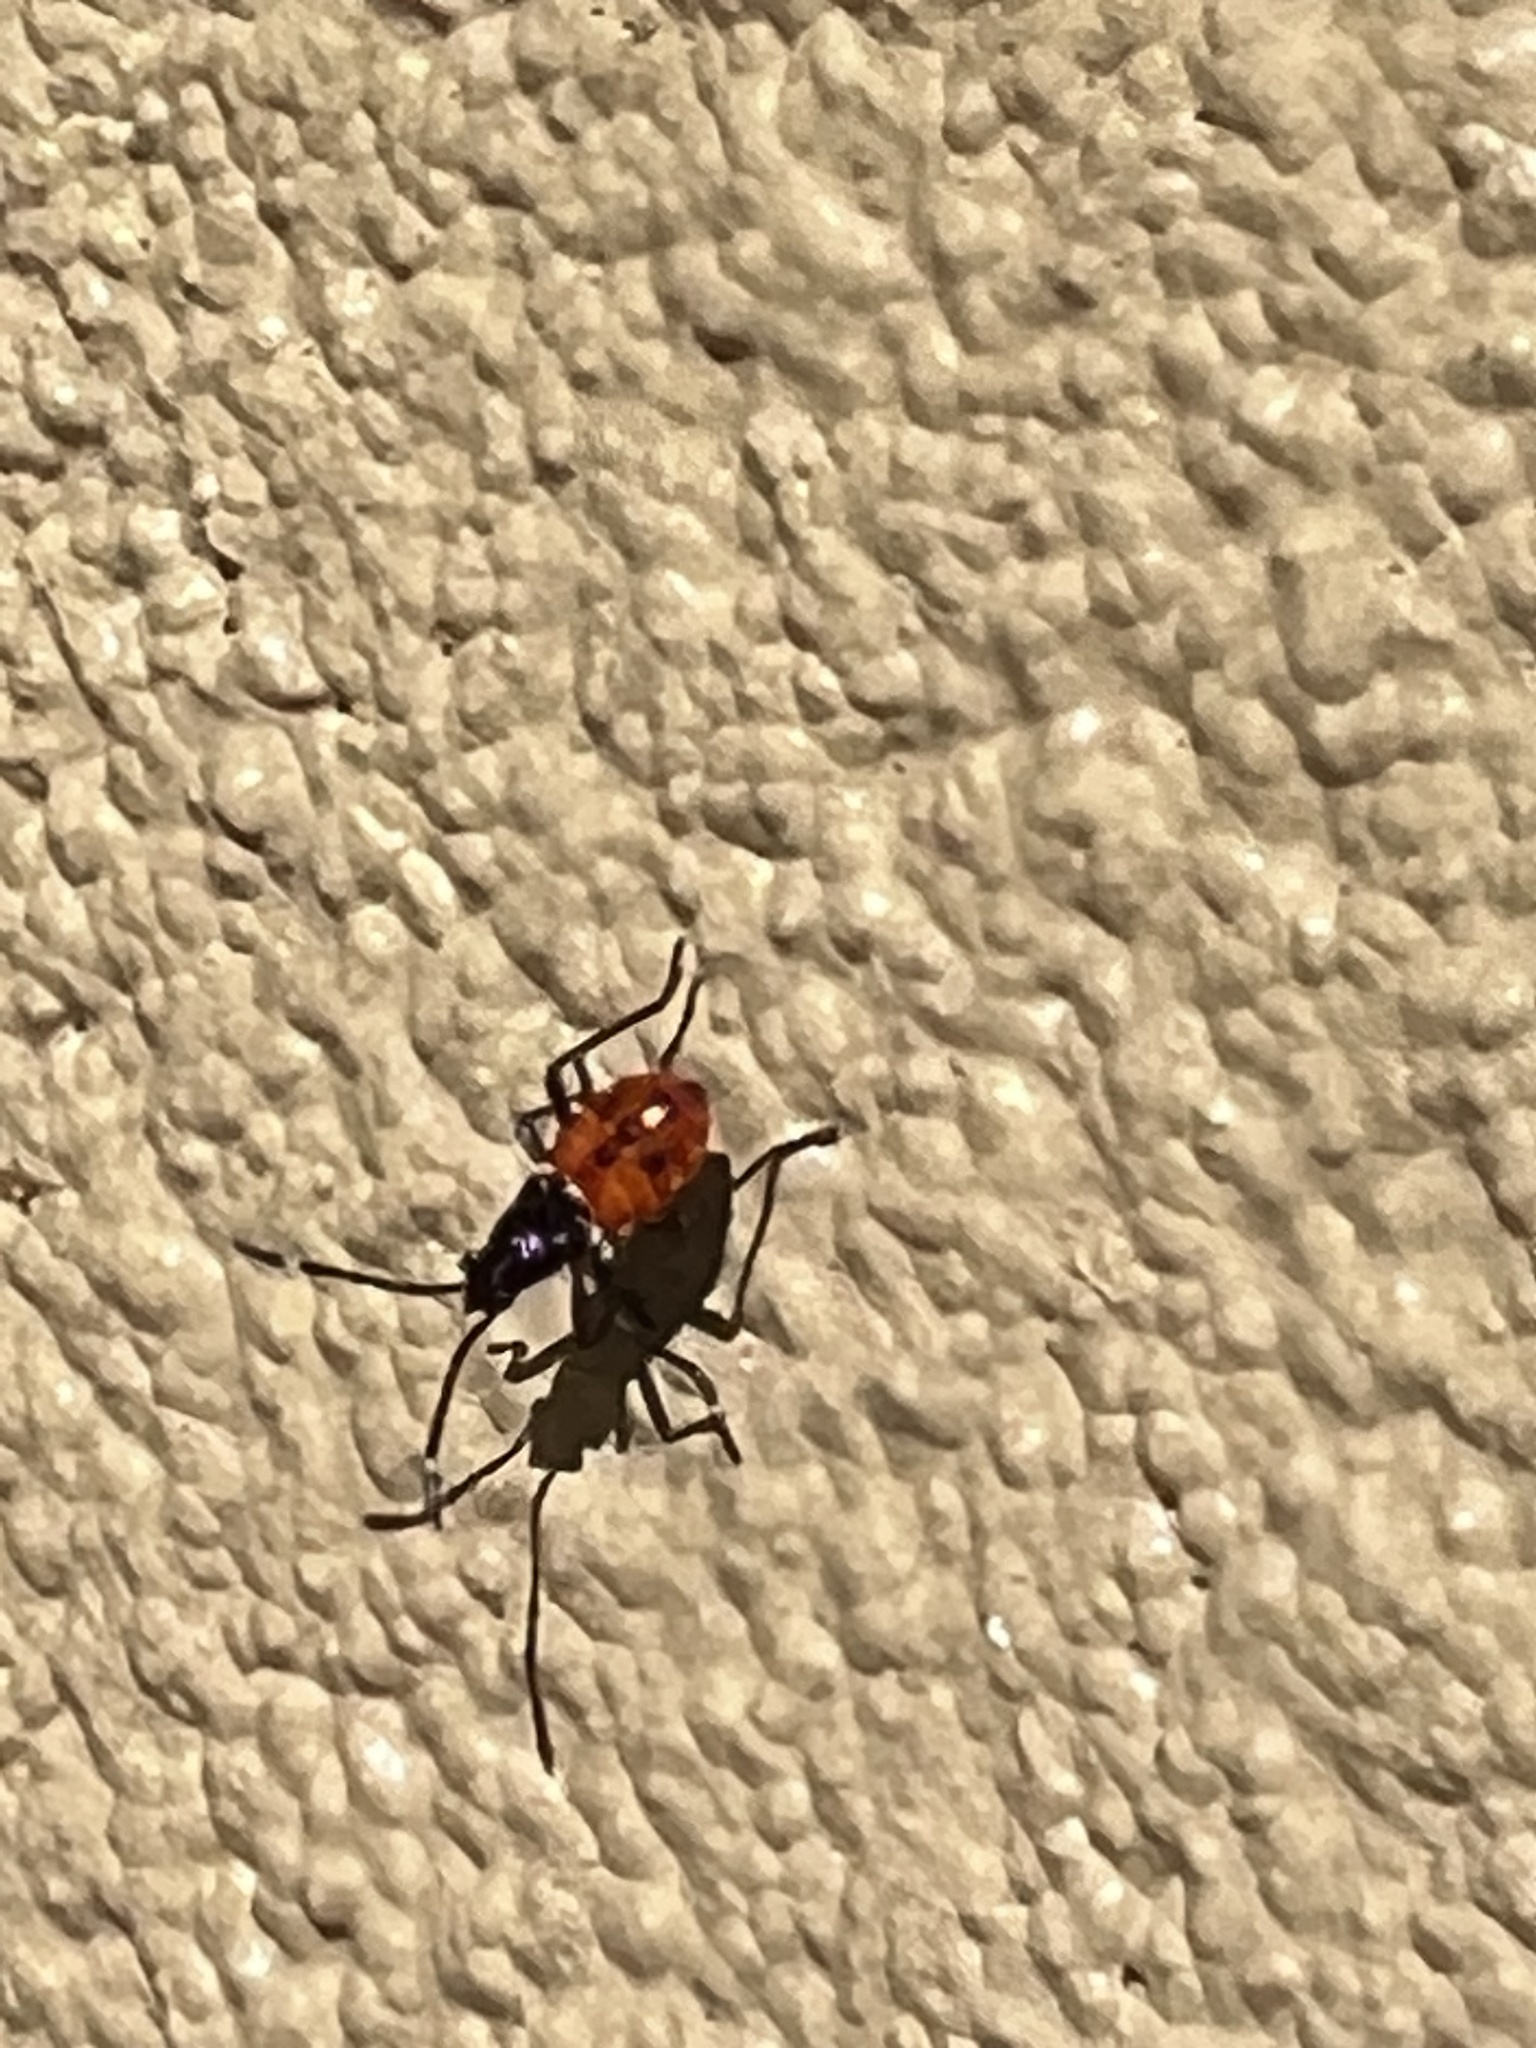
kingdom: Animalia
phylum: Arthropoda
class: Insecta
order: Hemiptera
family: Pyrrhocoridae
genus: Dindymus
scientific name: Dindymus
